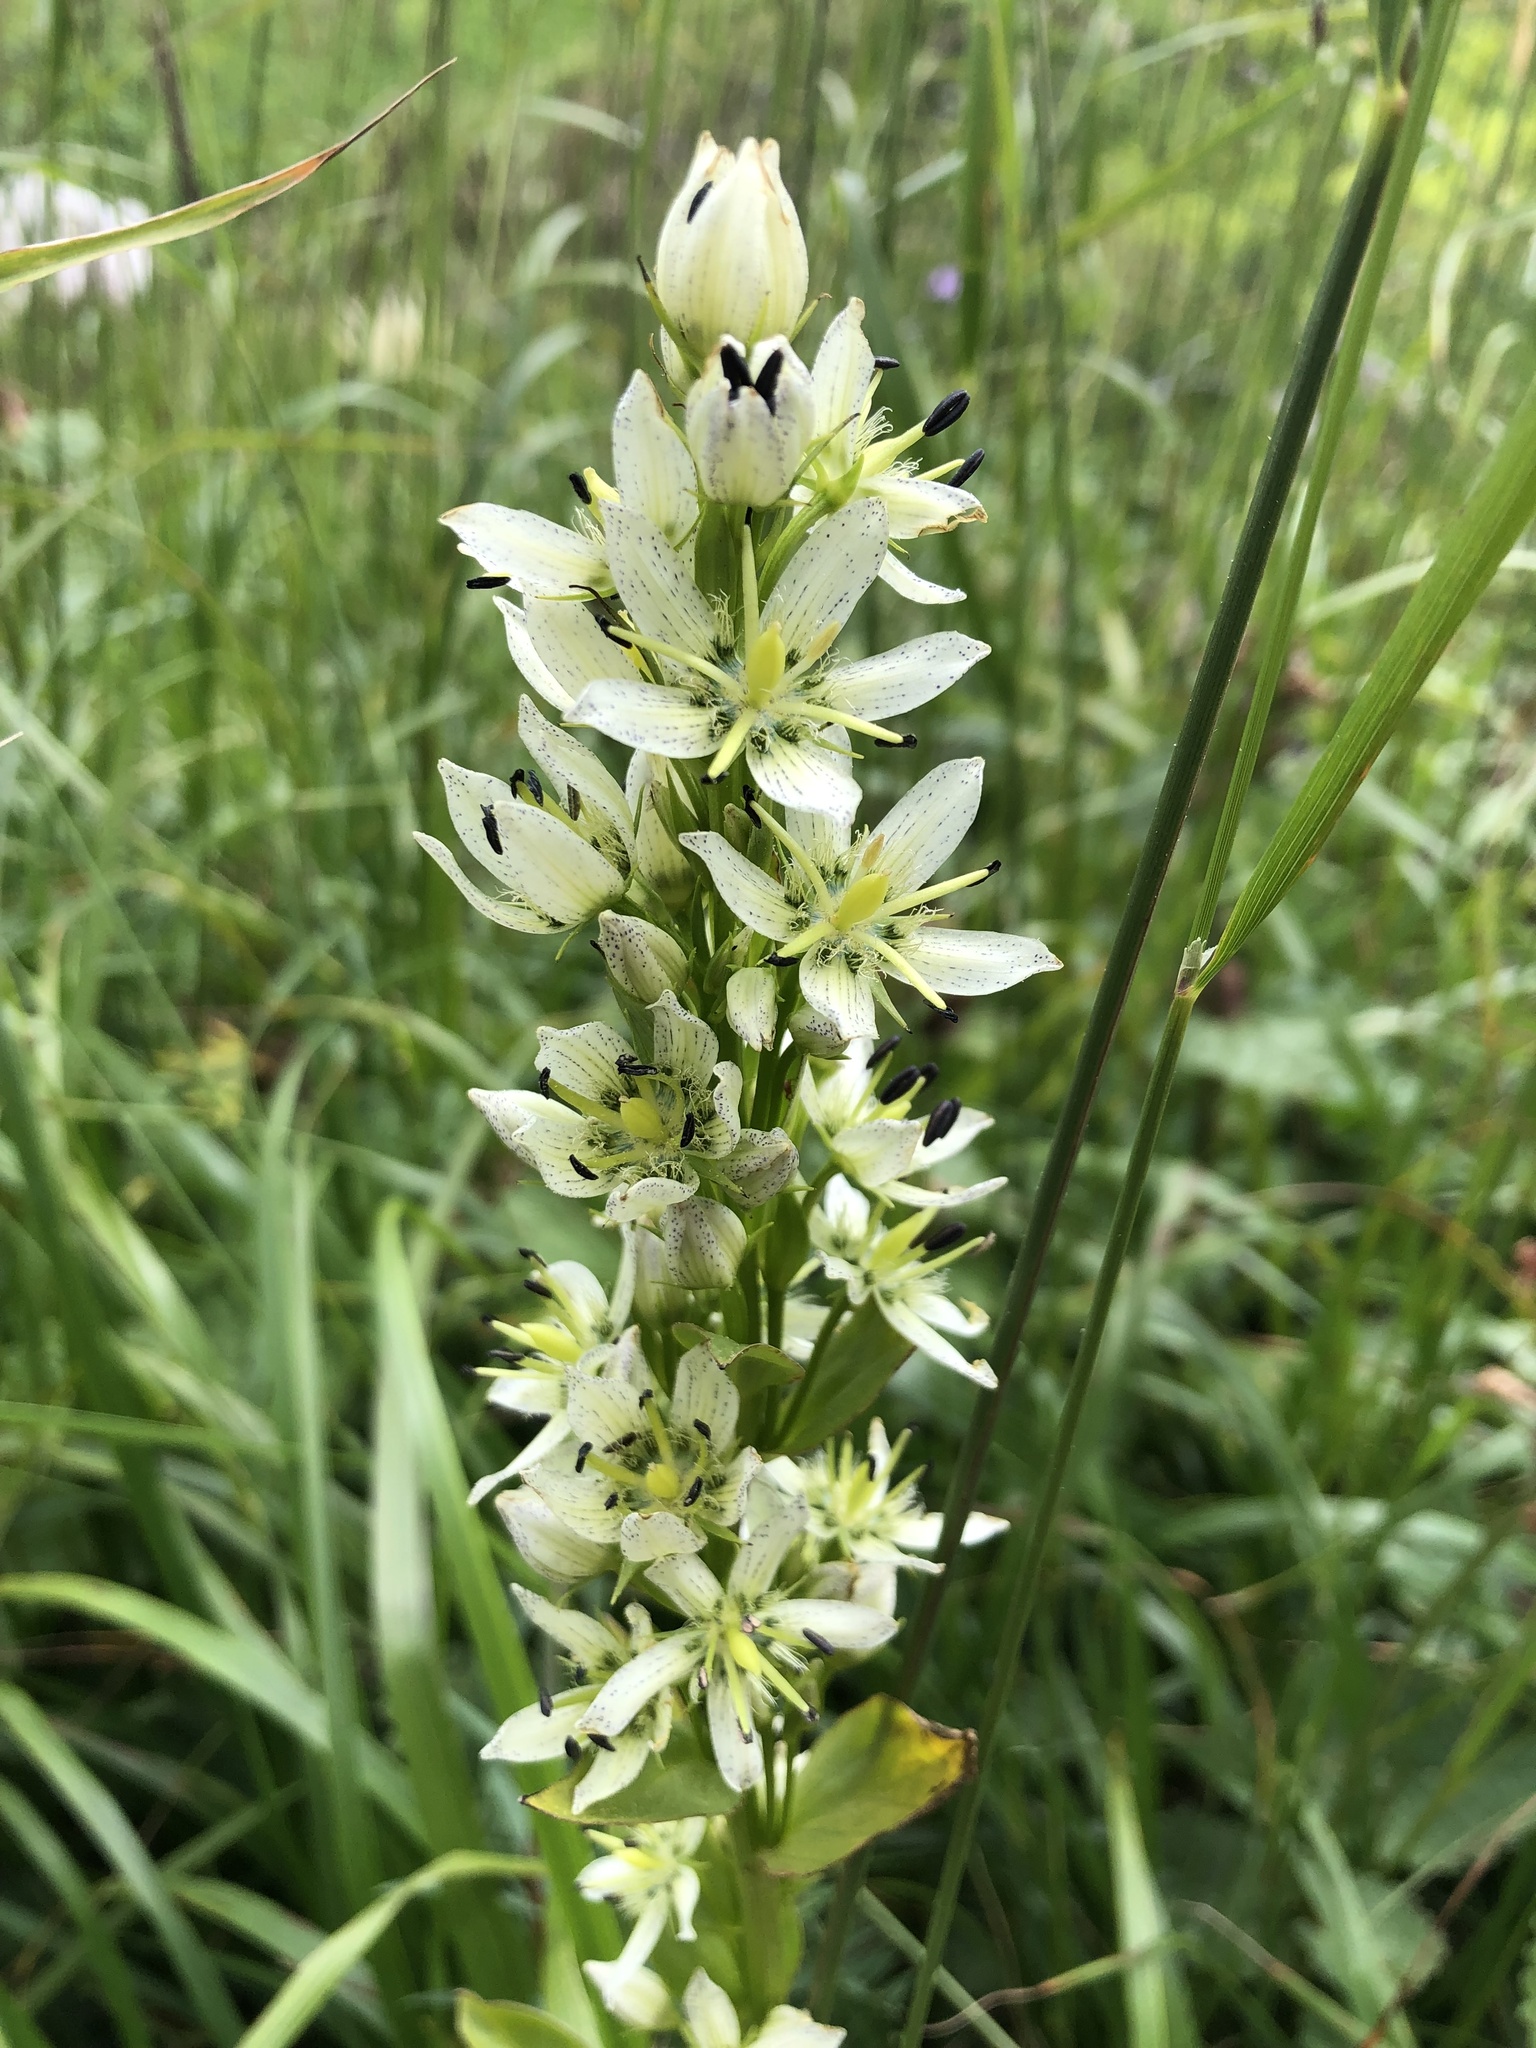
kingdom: Plantae
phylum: Tracheophyta
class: Magnoliopsida
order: Gentianales
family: Gentianaceae
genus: Swertia
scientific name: Swertia iberica
